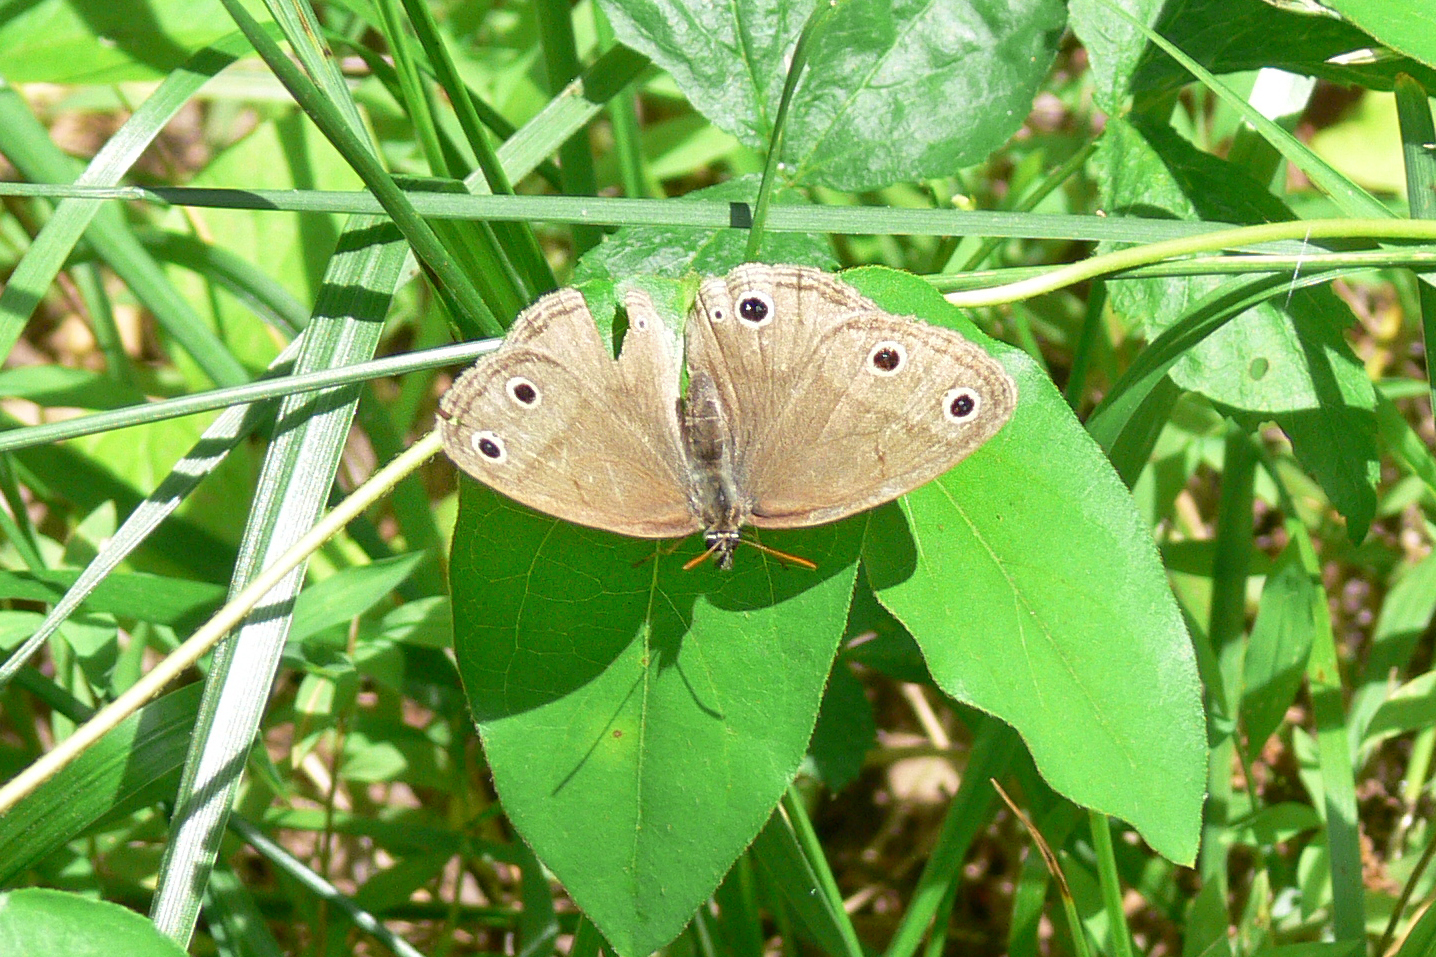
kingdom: Animalia
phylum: Arthropoda
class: Insecta
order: Lepidoptera
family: Nymphalidae
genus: Euptychia
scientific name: Euptychia cymela
